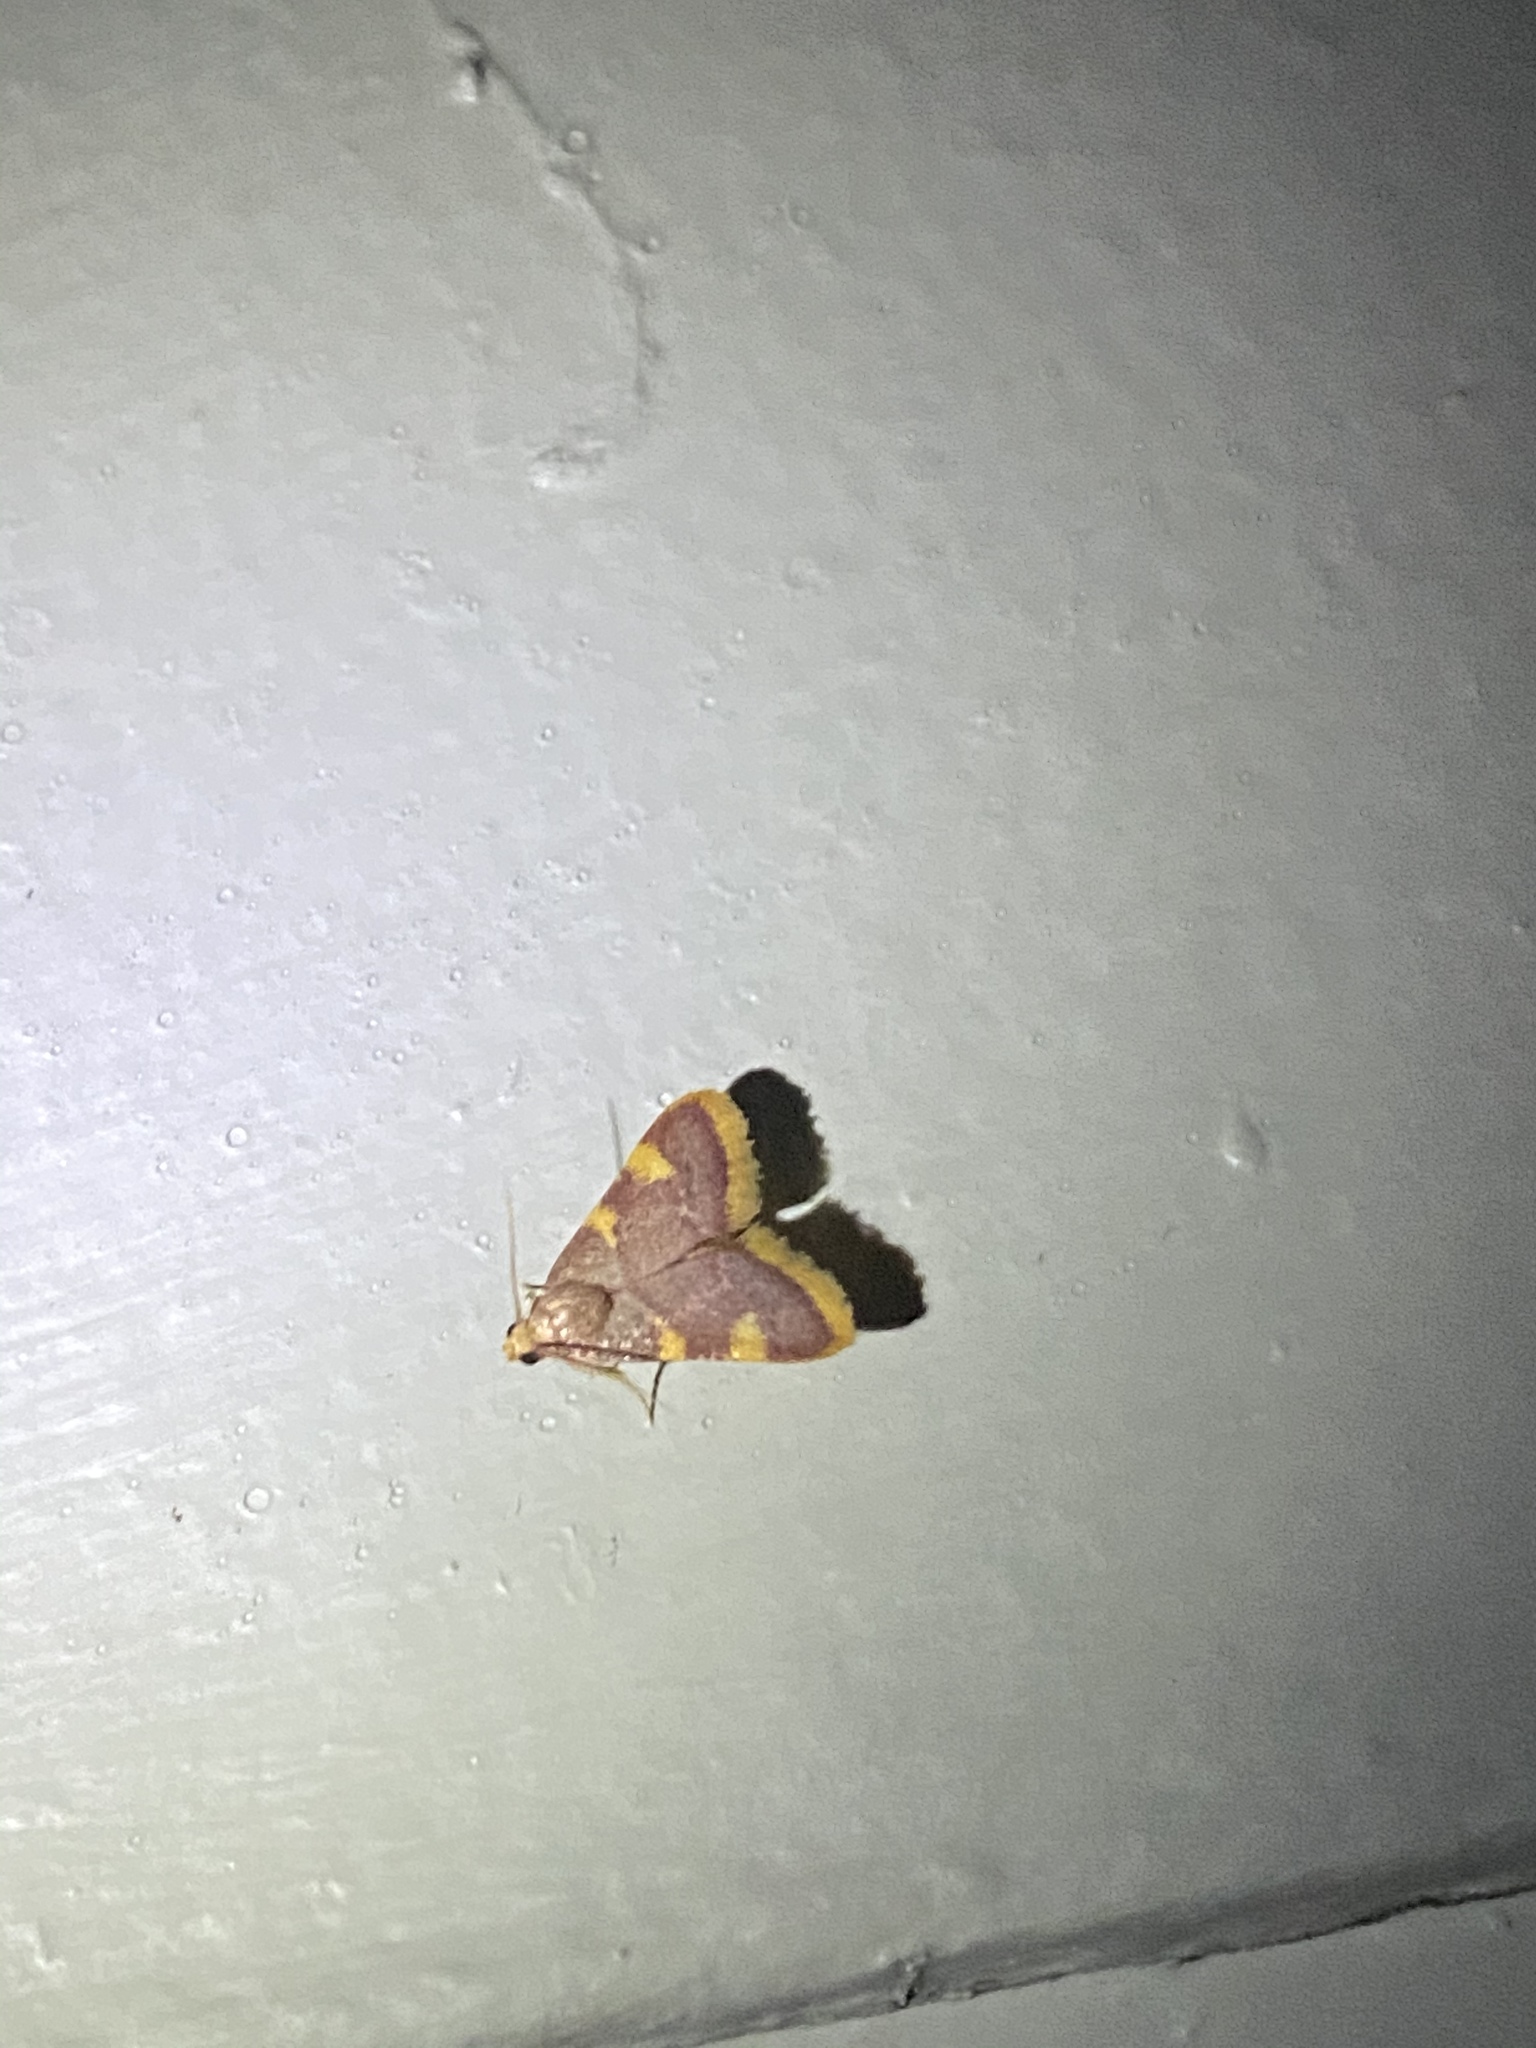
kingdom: Animalia
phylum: Arthropoda
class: Insecta
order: Lepidoptera
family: Pyralidae
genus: Hypsopygia
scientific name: Hypsopygia costalis
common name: Gold triangle
